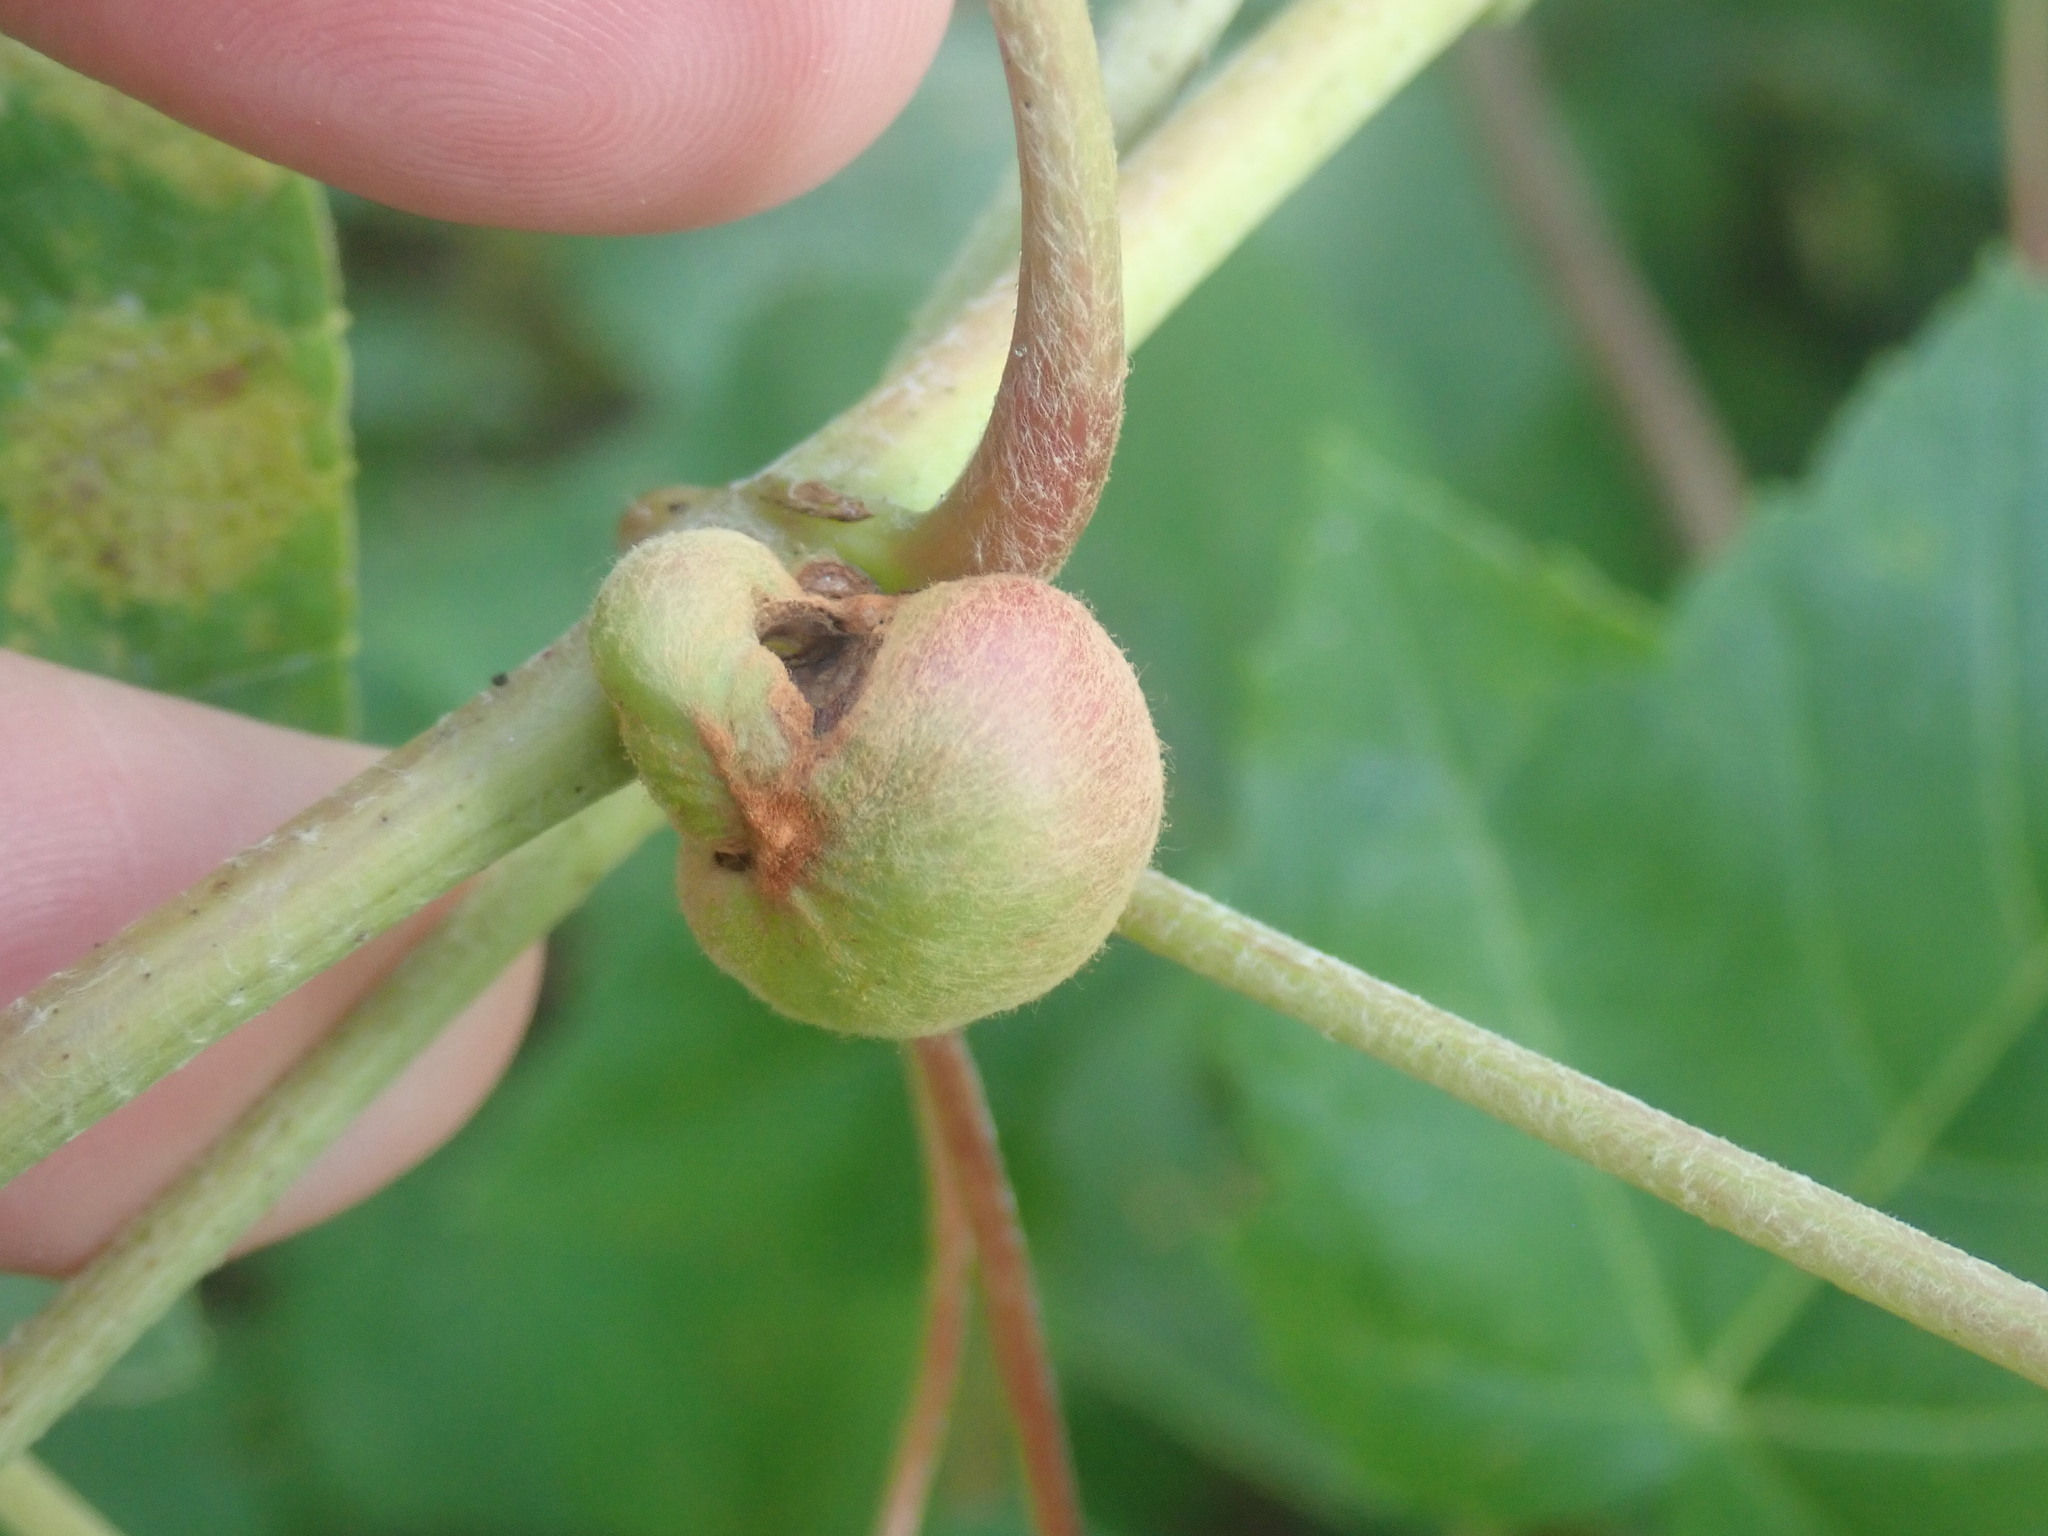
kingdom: Animalia
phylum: Arthropoda
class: Insecta
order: Diptera
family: Cecidomyiidae
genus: Ampelomyia
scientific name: Ampelomyia vitispomum
